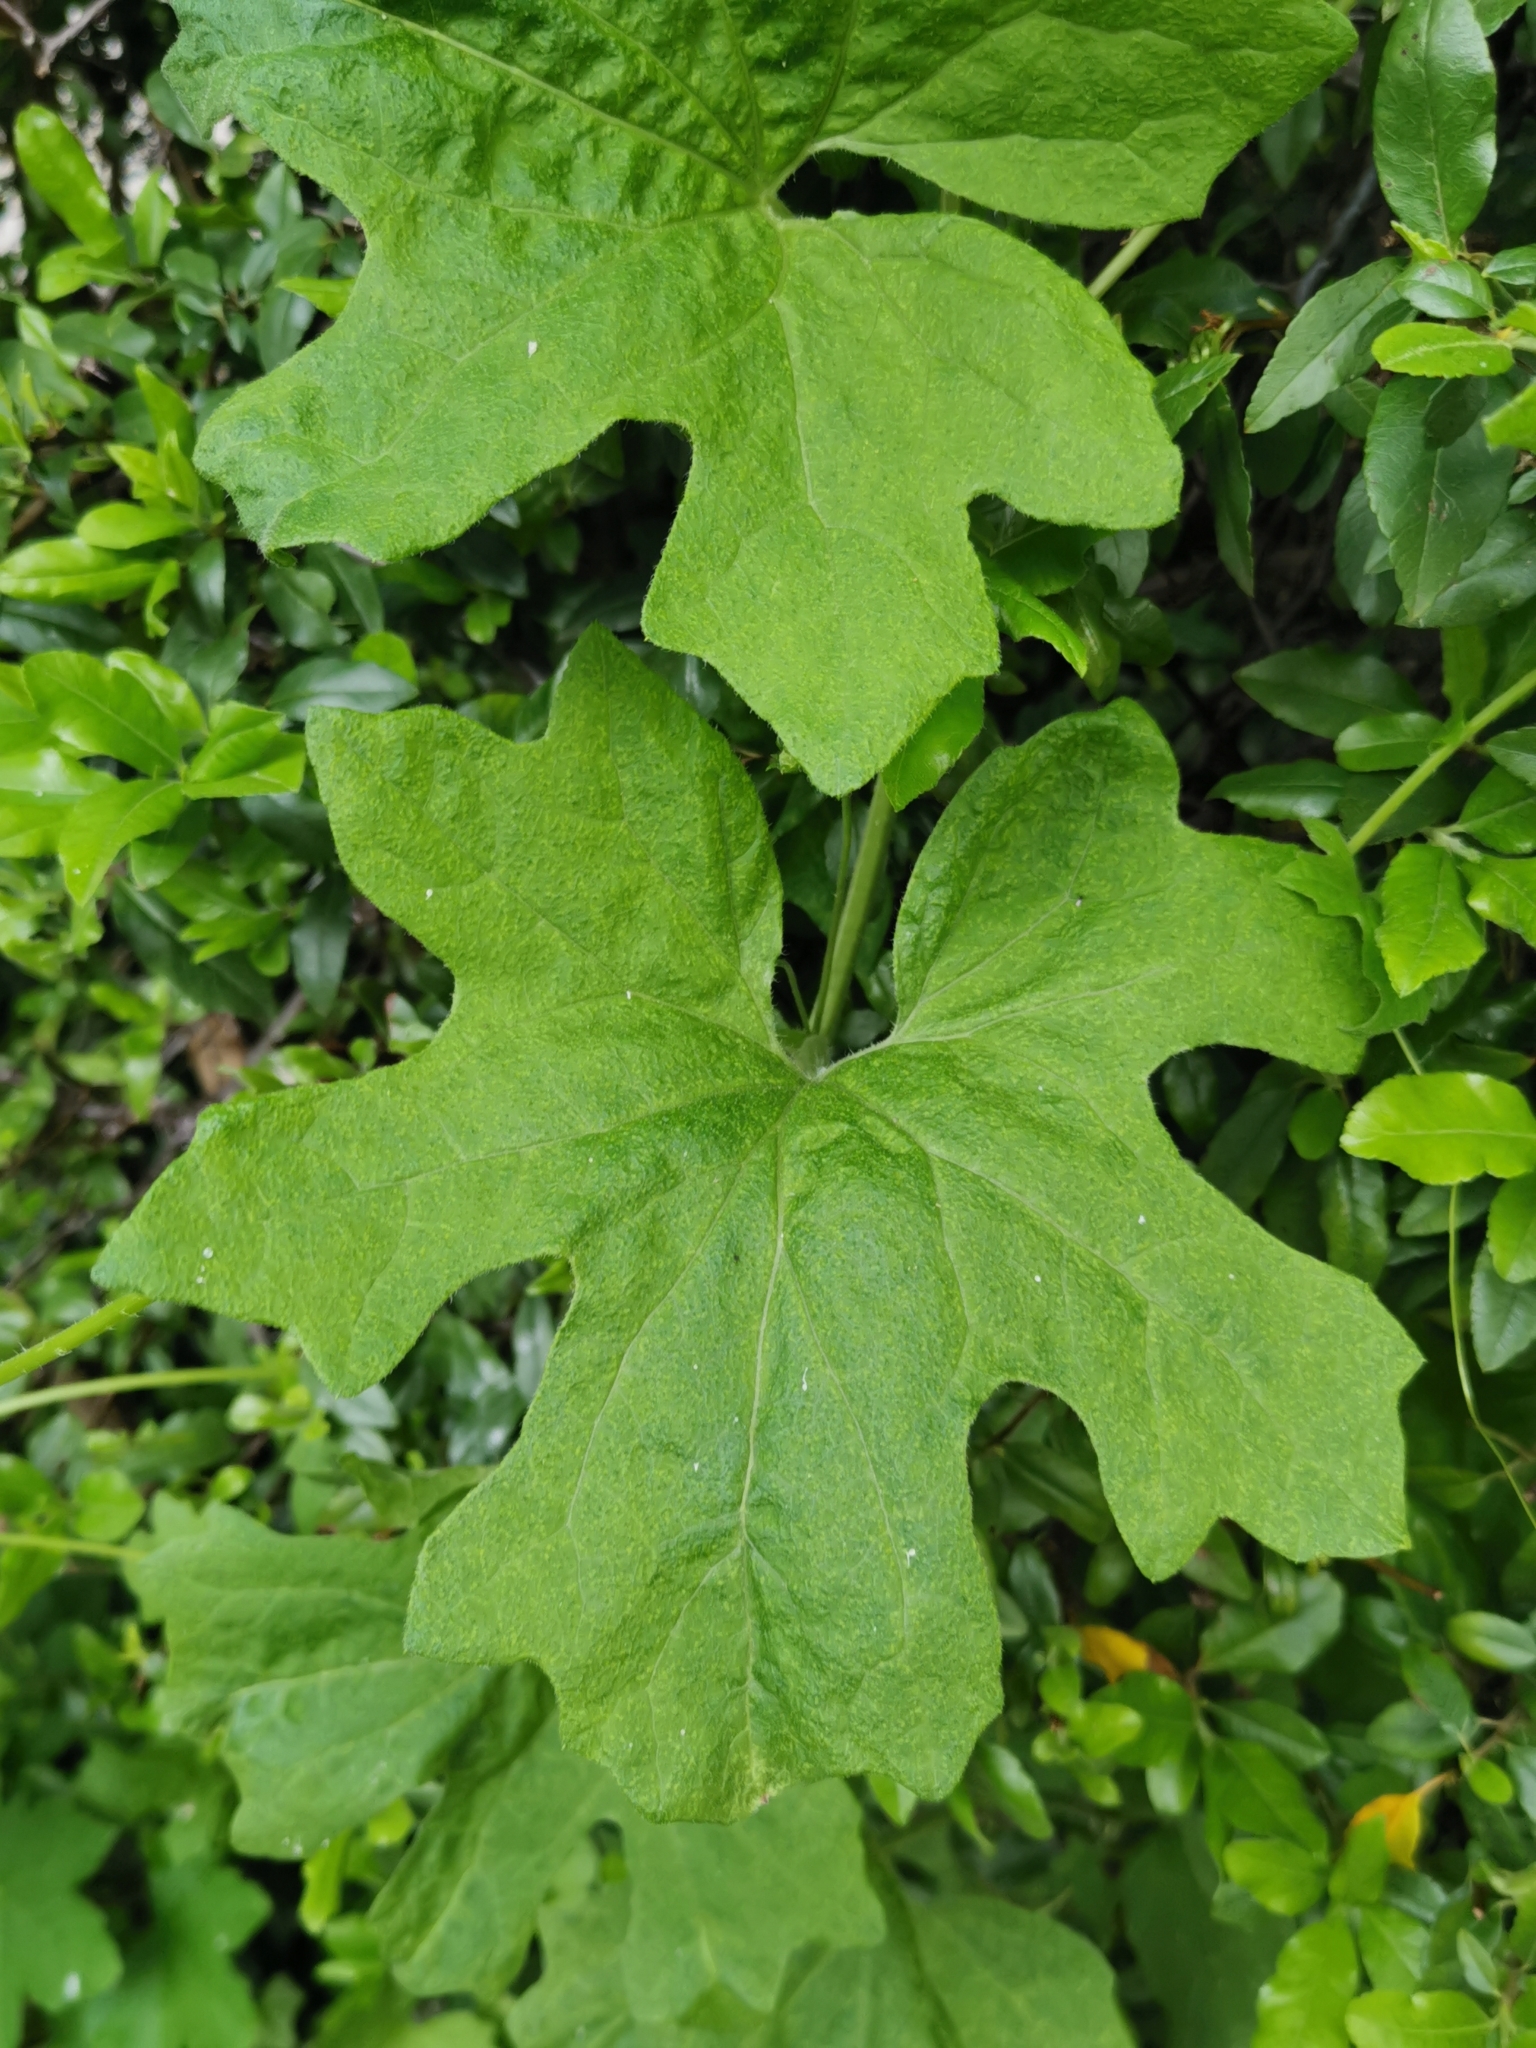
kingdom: Plantae
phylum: Tracheophyta
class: Magnoliopsida
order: Cucurbitales
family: Cucurbitaceae
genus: Bryonia
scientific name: Bryonia cretica
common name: Cretan bryony
